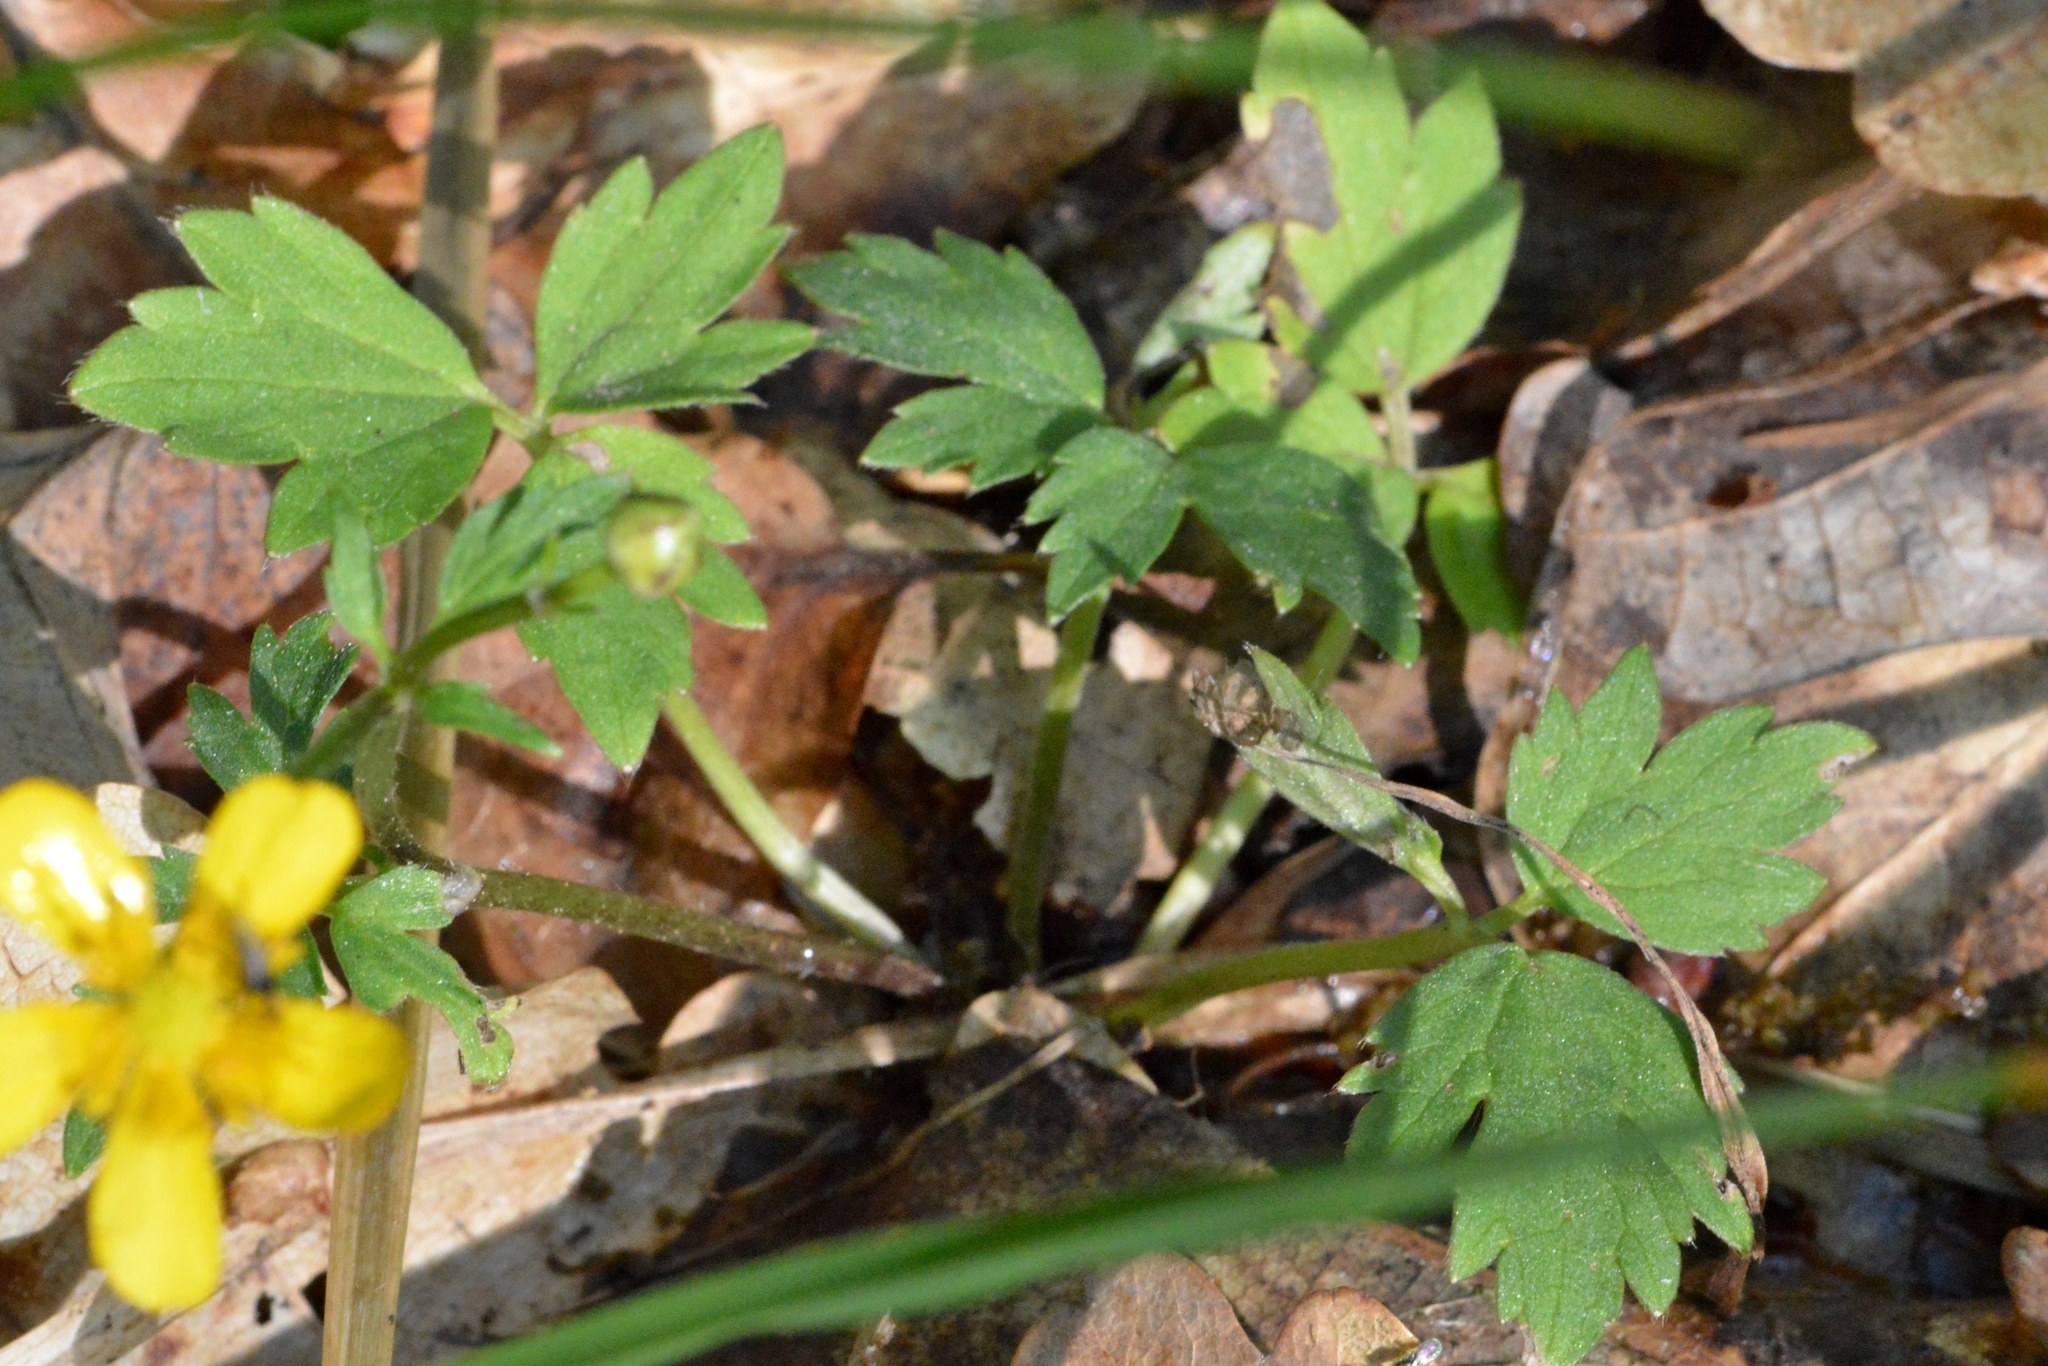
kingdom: Plantae
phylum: Tracheophyta
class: Magnoliopsida
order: Ranunculales
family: Ranunculaceae
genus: Ranunculus
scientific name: Ranunculus repens
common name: Creeping buttercup
